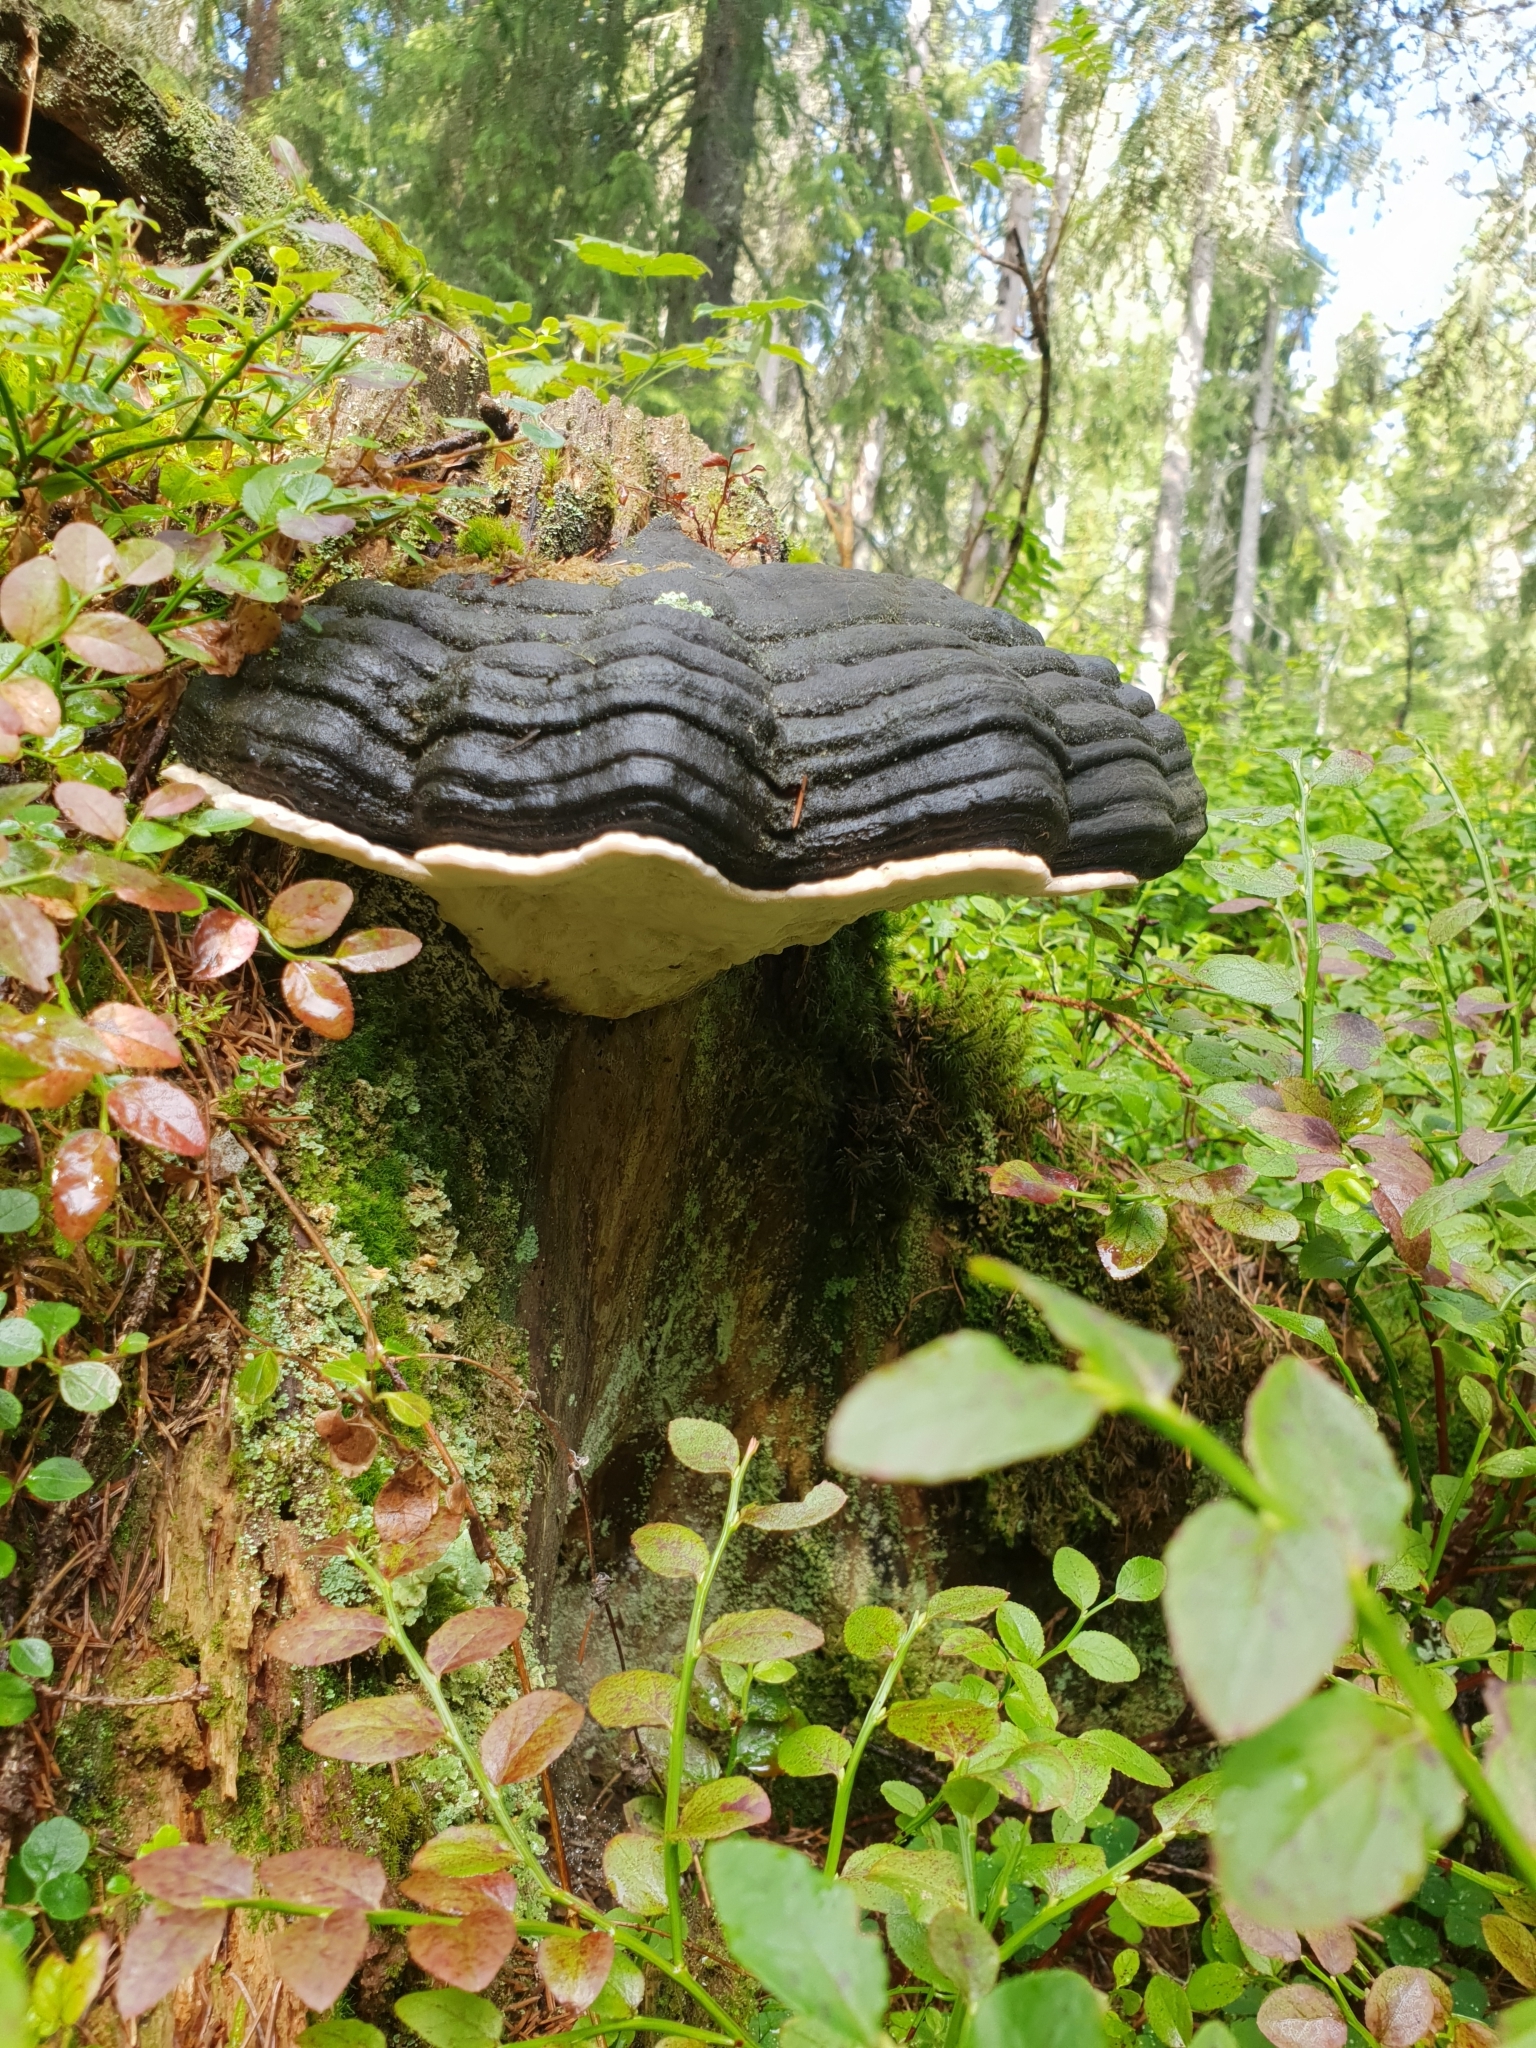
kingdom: Fungi
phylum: Basidiomycota
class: Agaricomycetes
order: Polyporales
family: Fomitopsidaceae
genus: Fomitopsis
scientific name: Fomitopsis pinicola
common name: Red-belted bracket
